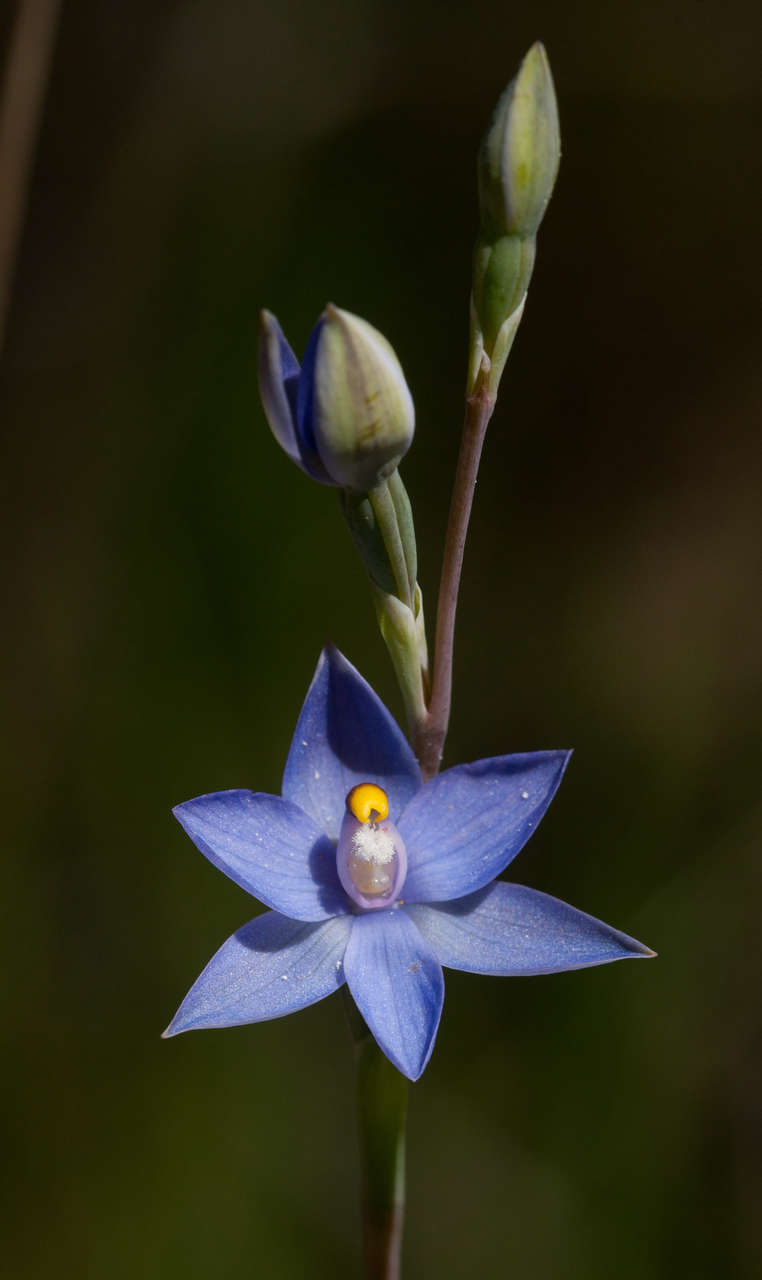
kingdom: Plantae
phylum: Tracheophyta
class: Liliopsida
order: Asparagales
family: Orchidaceae
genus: Thelymitra
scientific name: Thelymitra holmesii
